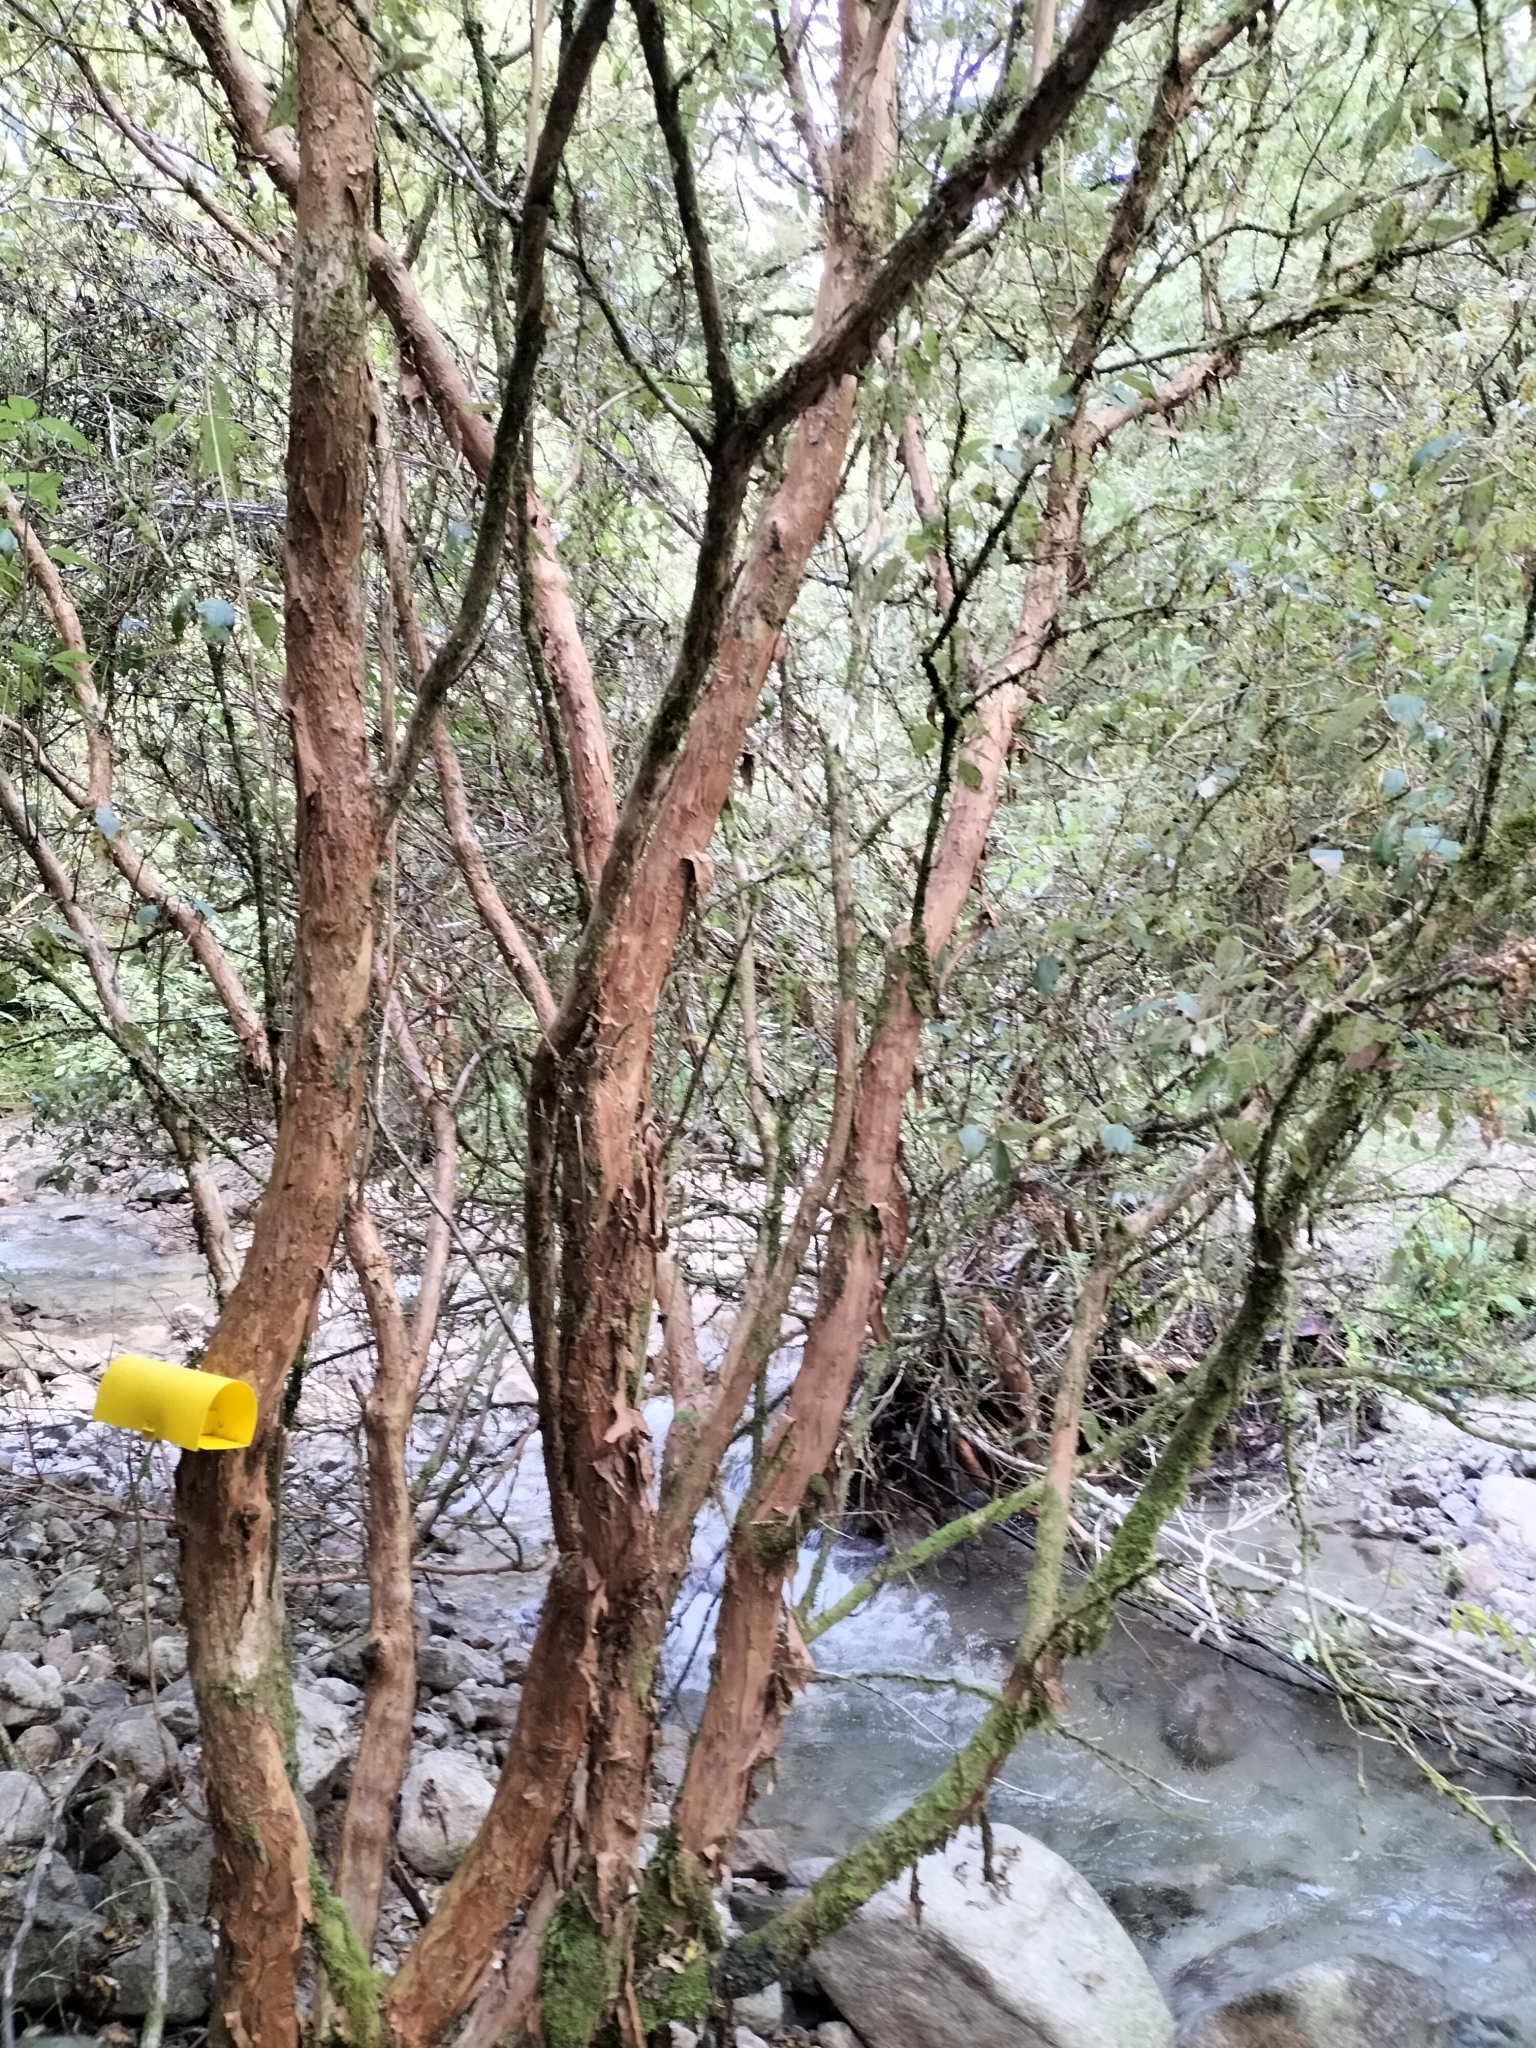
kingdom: Plantae
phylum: Tracheophyta
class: Magnoliopsida
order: Myrtales
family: Onagraceae
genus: Fuchsia
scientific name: Fuchsia excorticata
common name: Tree fuchsia
